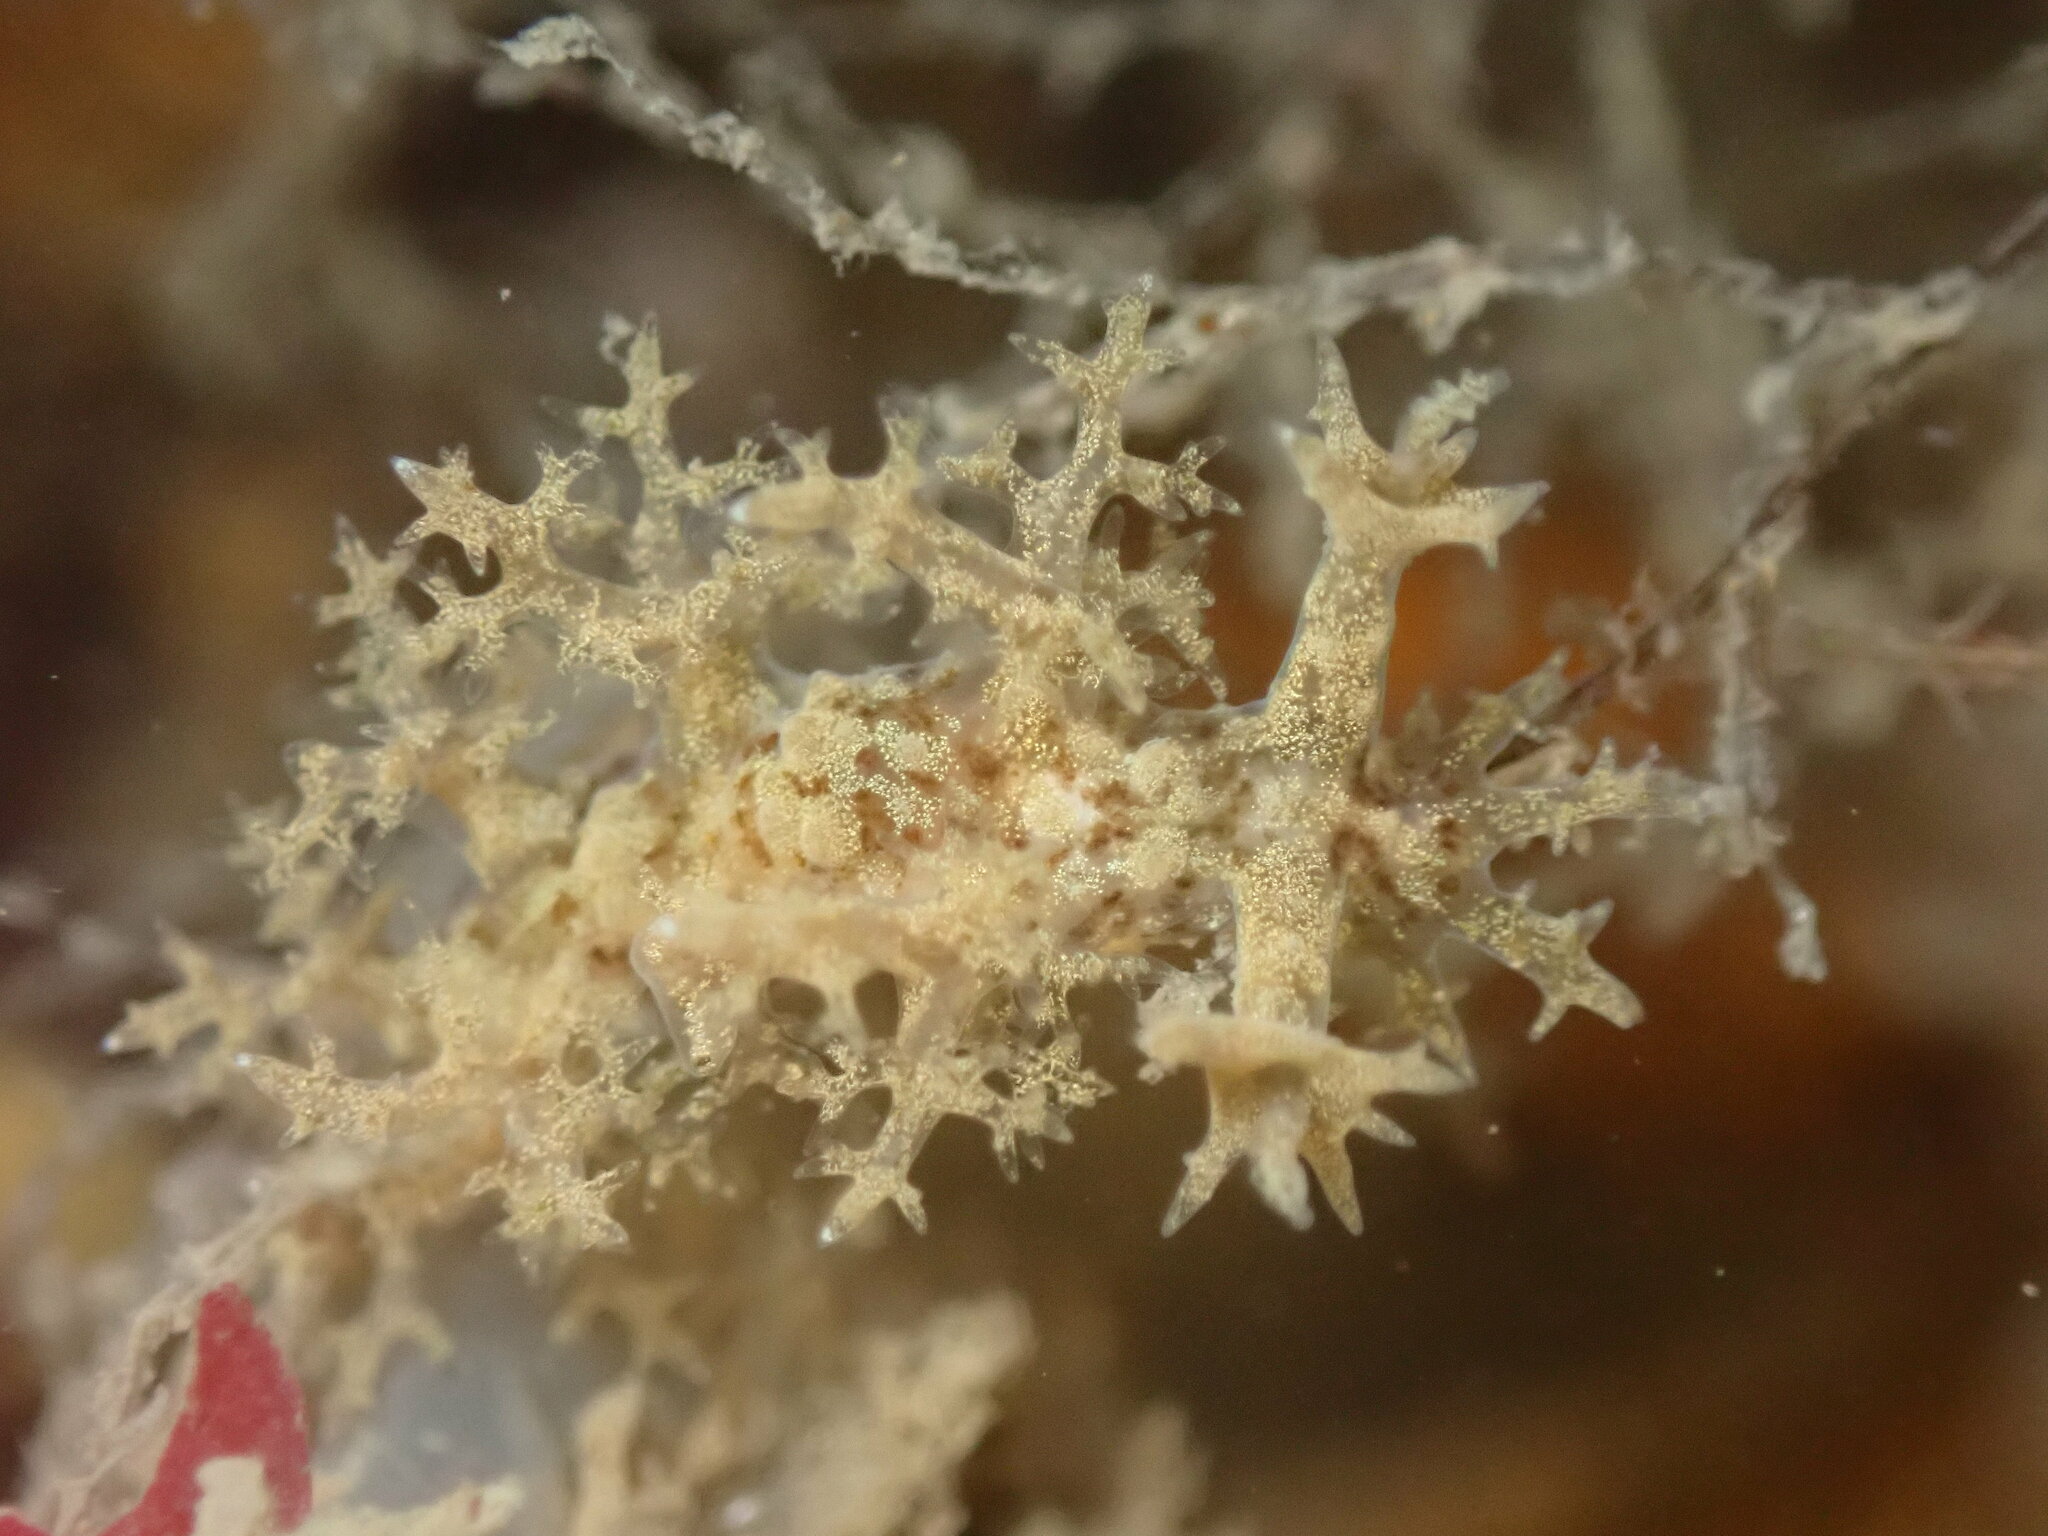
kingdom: Animalia
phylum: Mollusca
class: Gastropoda
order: Nudibranchia
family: Dendronotidae
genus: Dendronotus
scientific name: Dendronotus venustus
